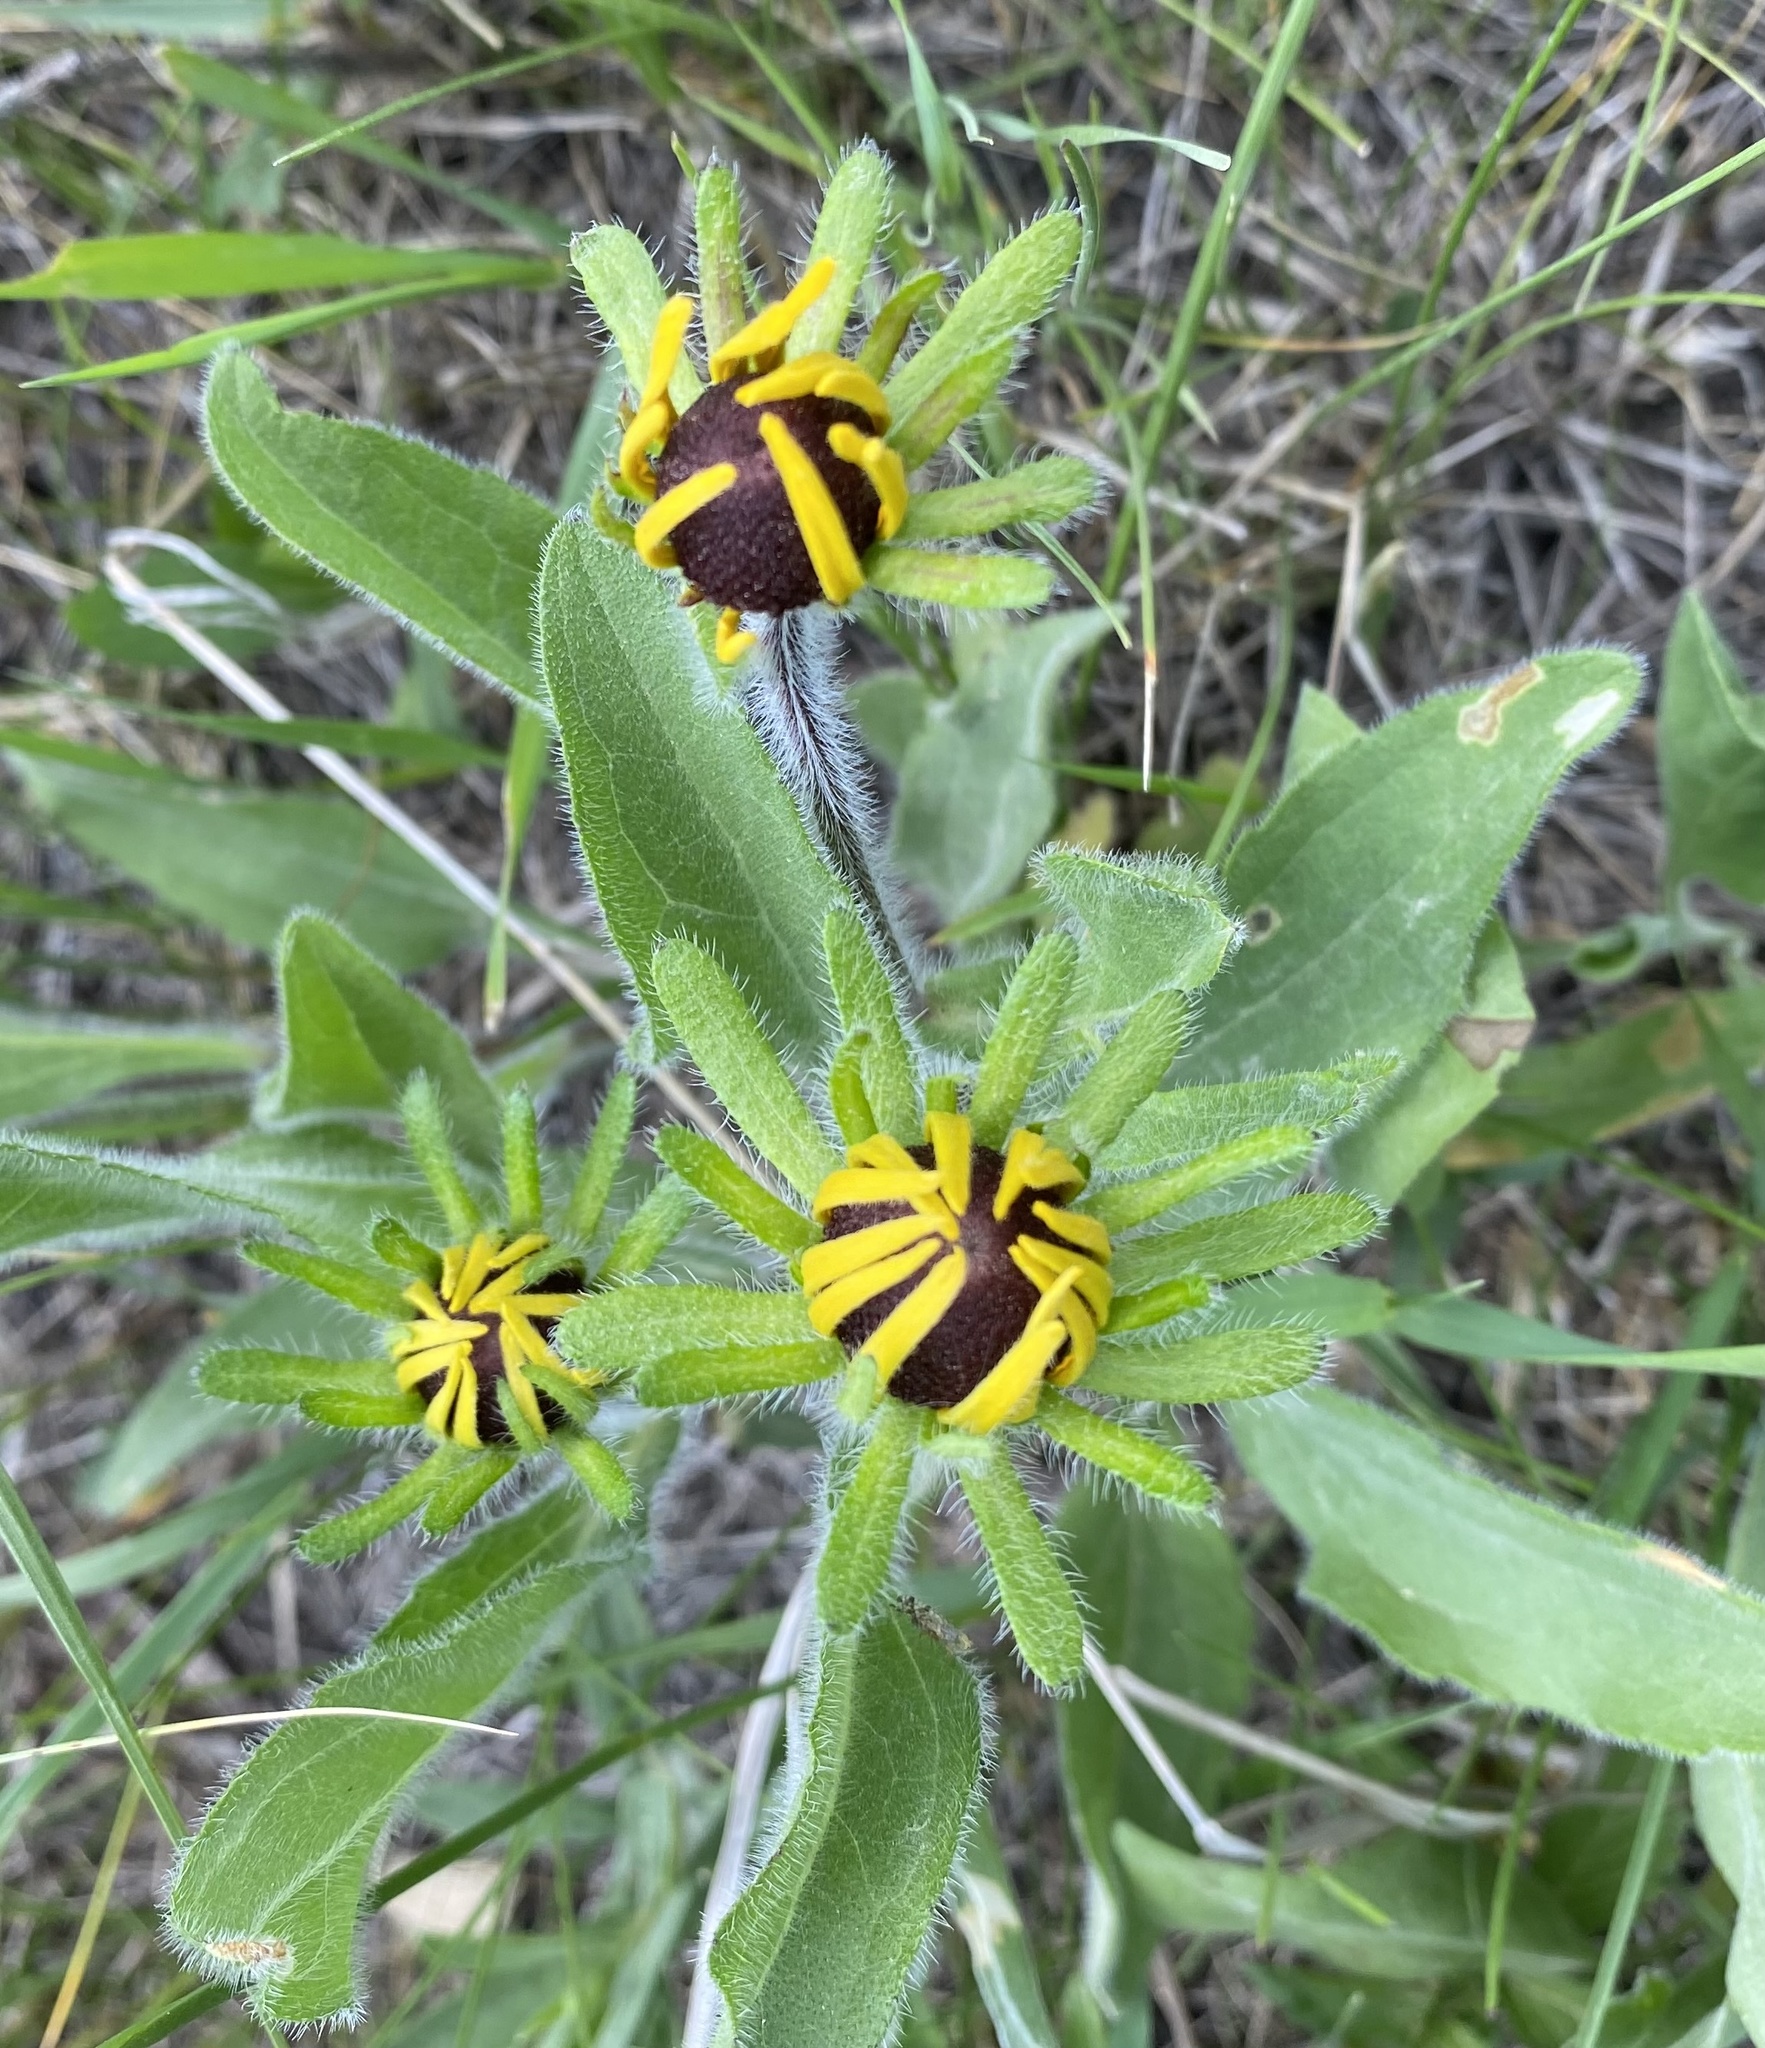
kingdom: Plantae
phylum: Tracheophyta
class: Magnoliopsida
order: Asterales
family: Asteraceae
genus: Rudbeckia
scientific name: Rudbeckia hirta
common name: Black-eyed-susan
